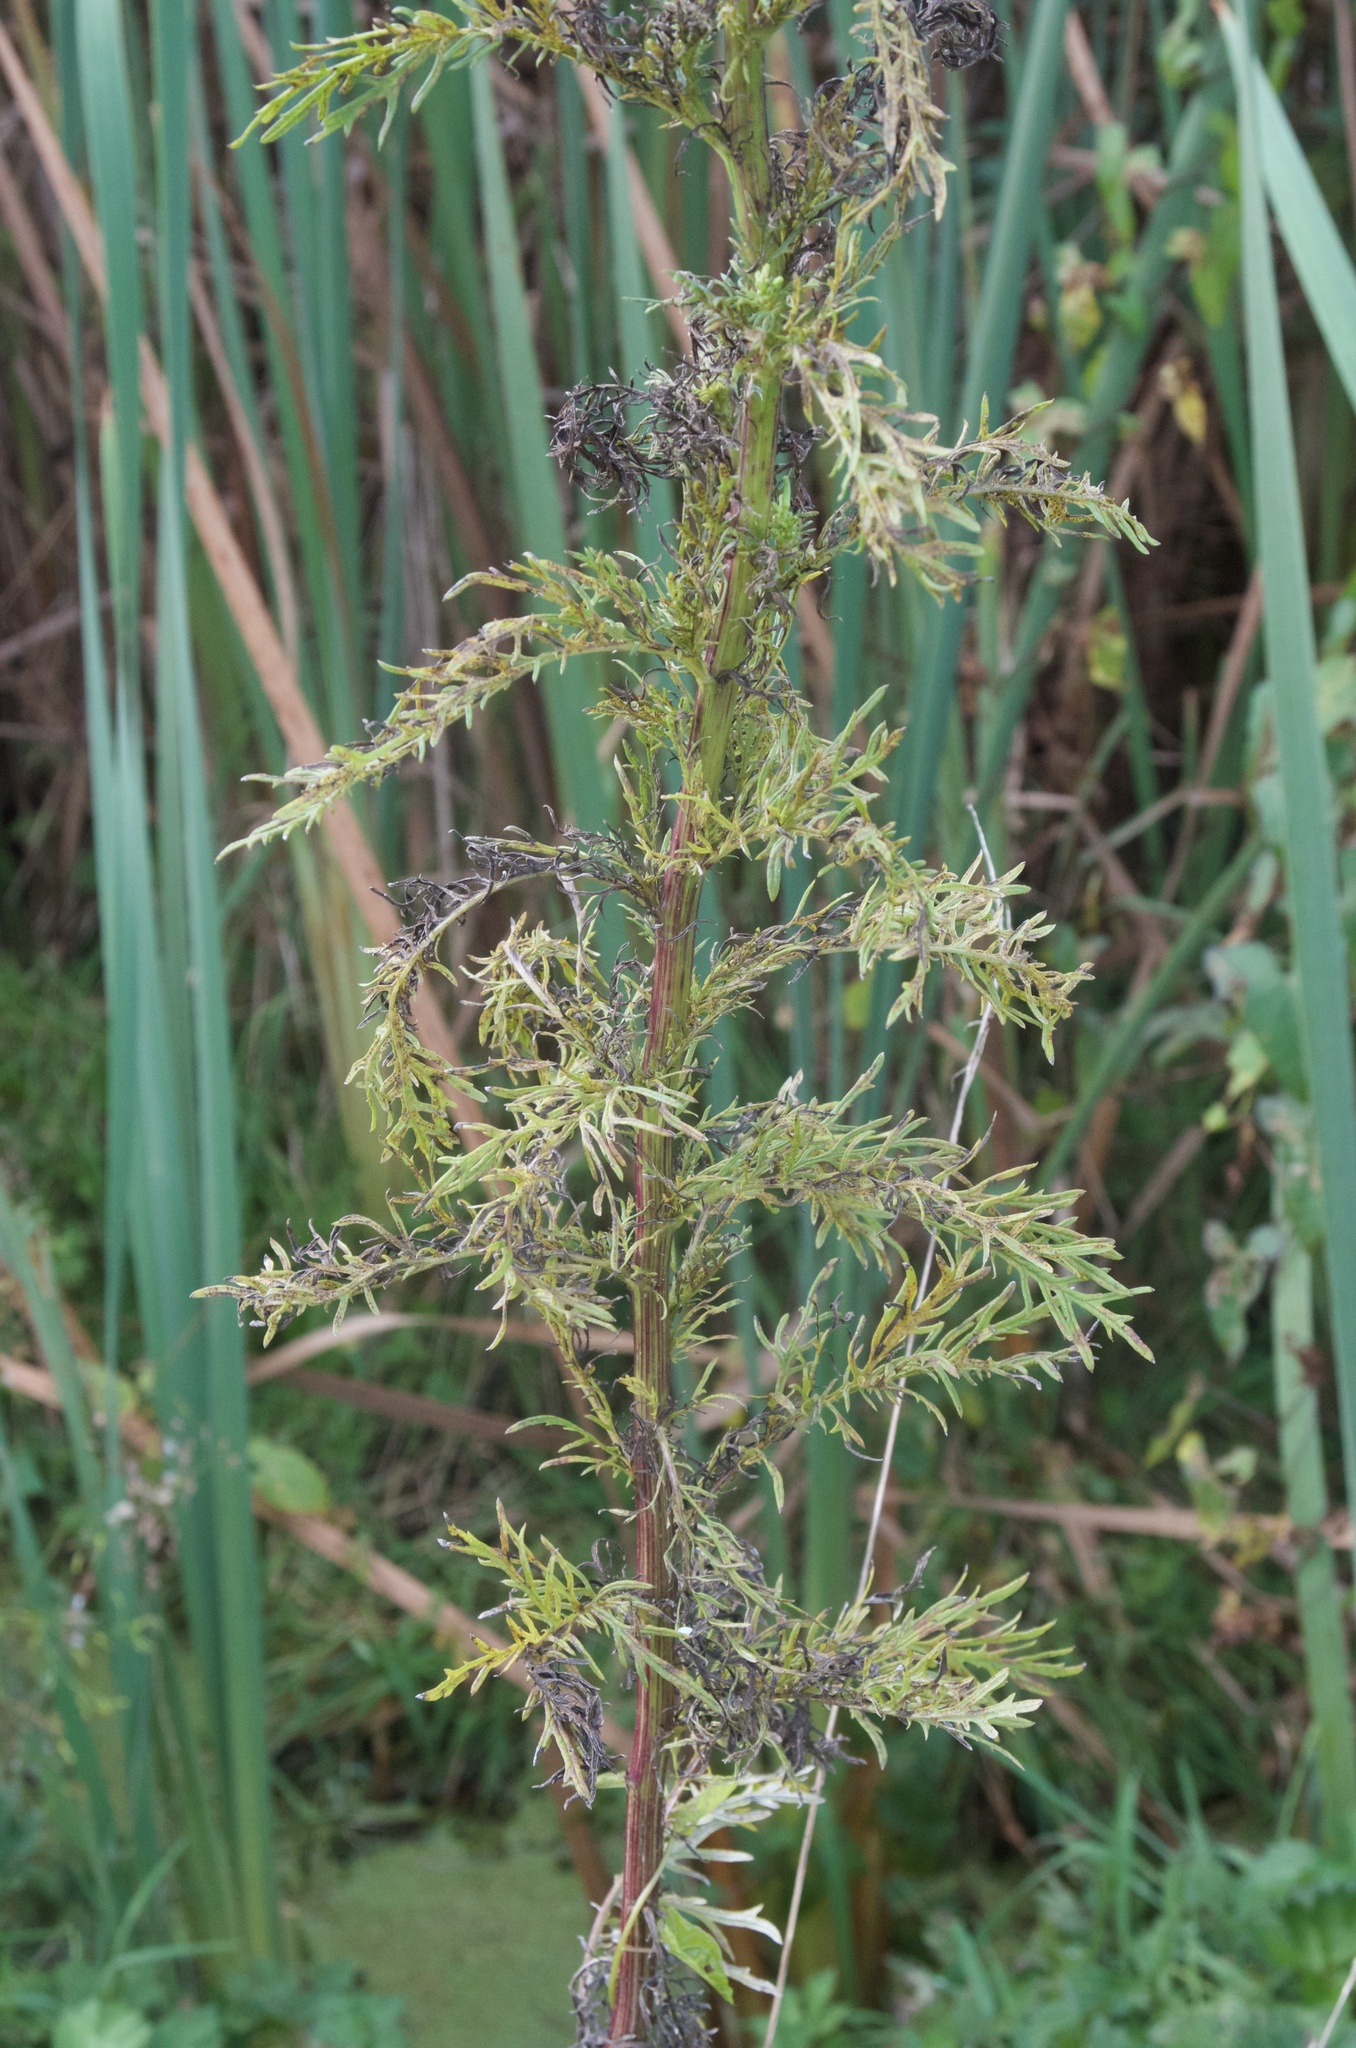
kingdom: Plantae
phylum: Tracheophyta
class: Magnoliopsida
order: Asterales
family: Asteraceae
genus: Senecio
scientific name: Senecio bipinnatisectus
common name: Australian fireweed
